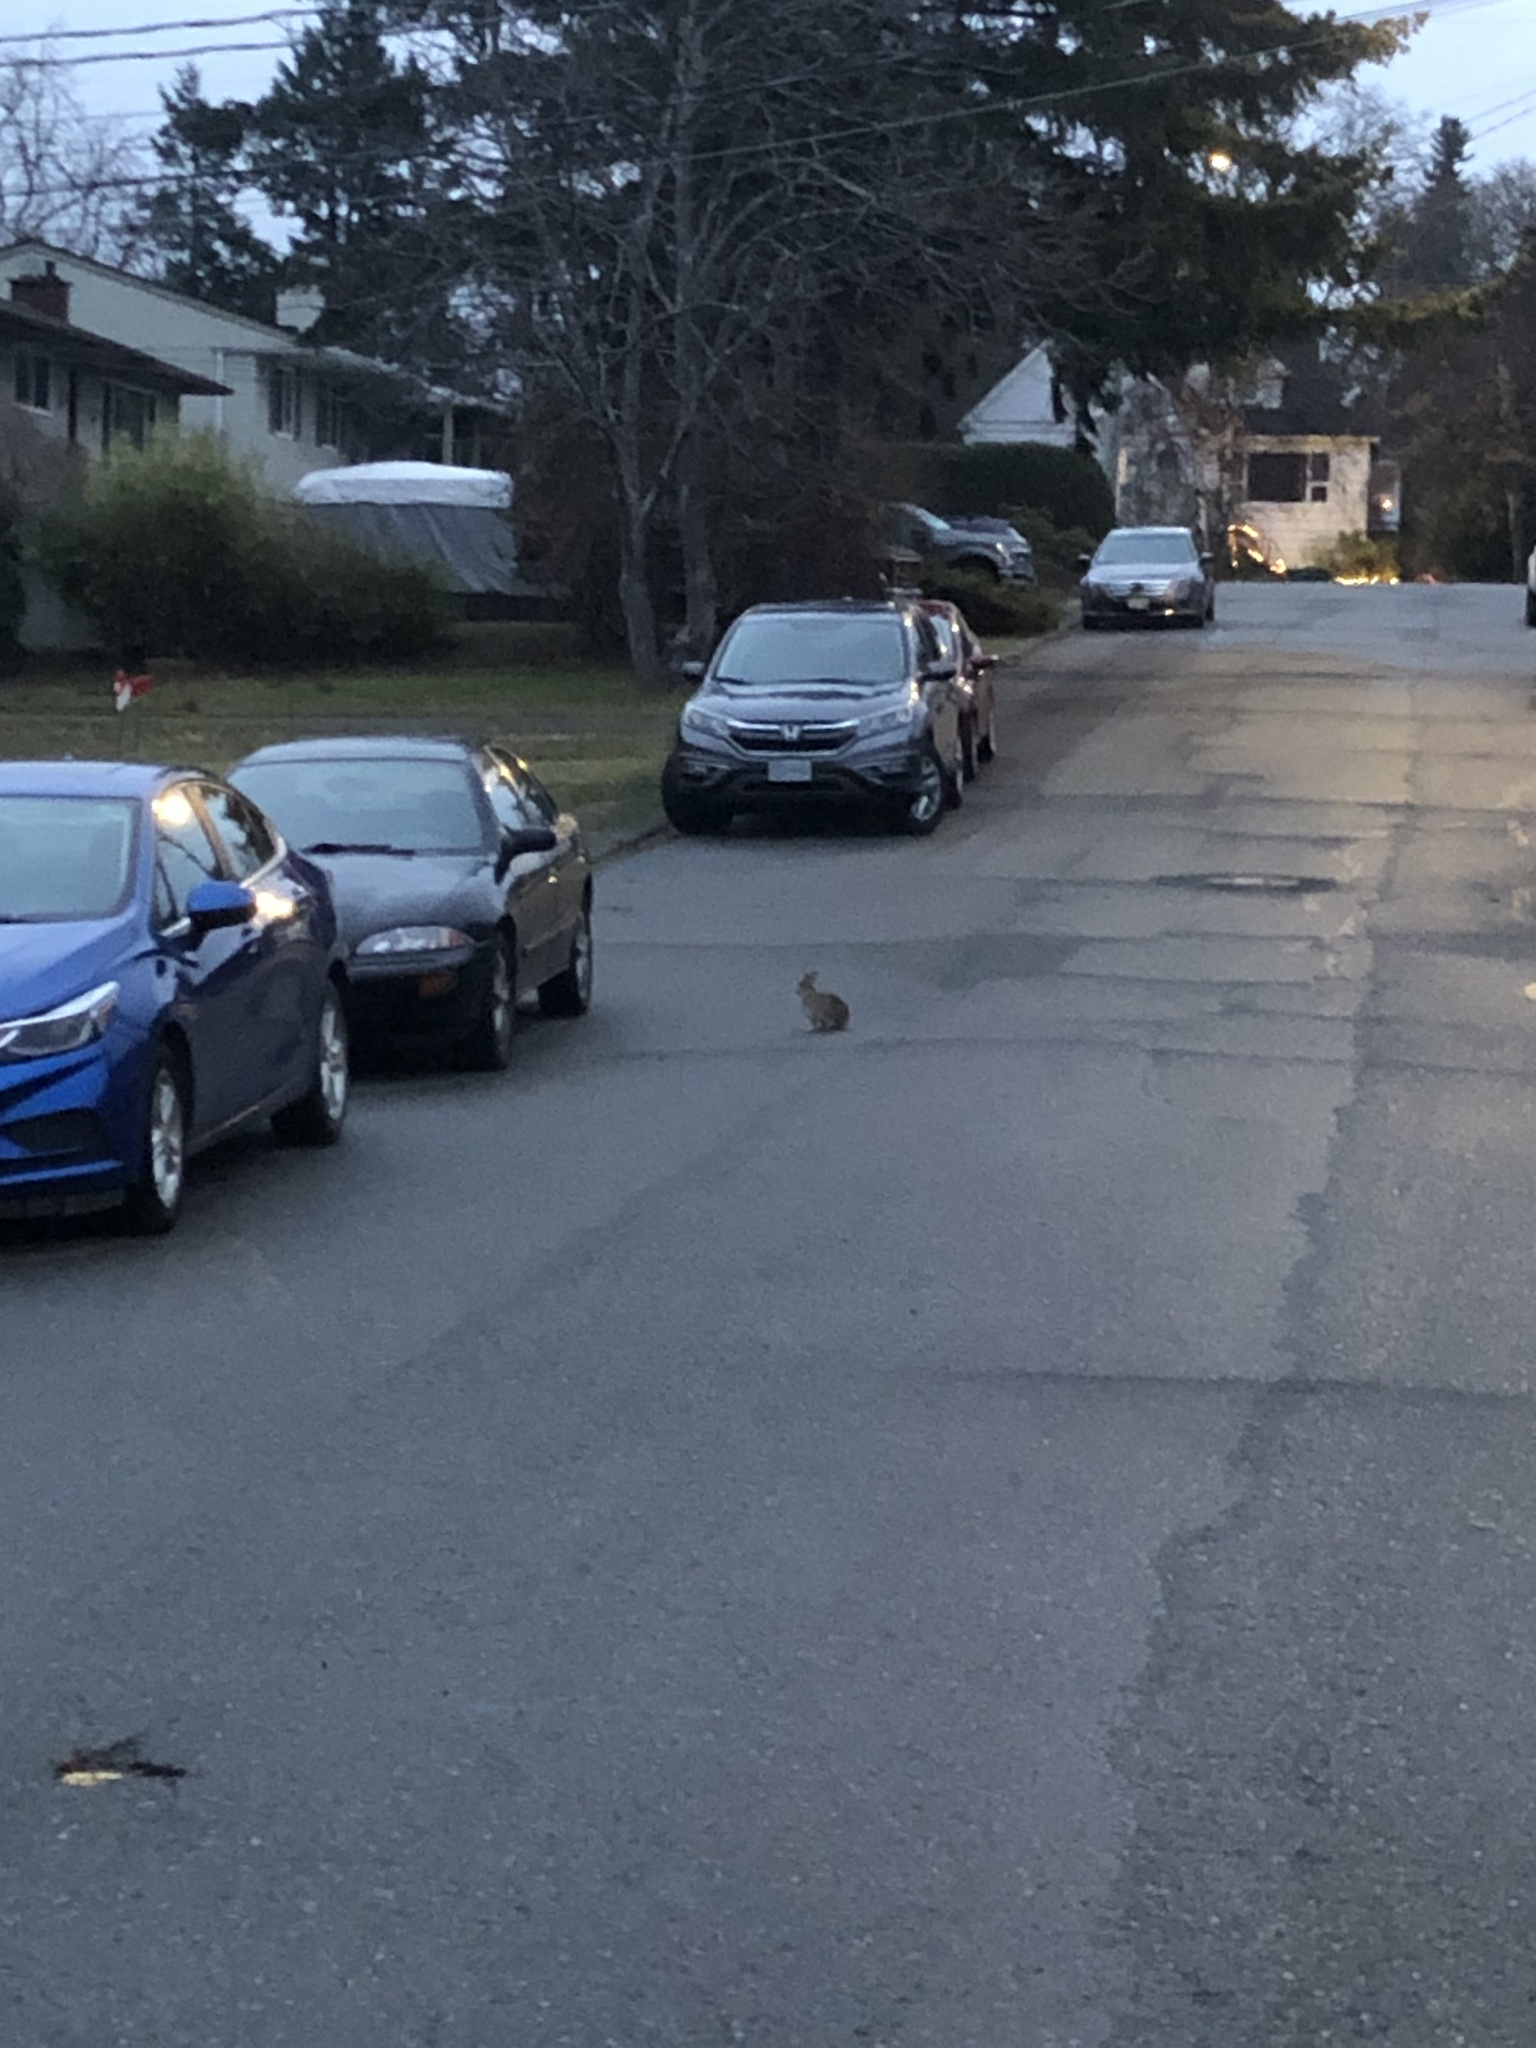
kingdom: Animalia
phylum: Chordata
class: Mammalia
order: Lagomorpha
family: Leporidae
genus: Sylvilagus
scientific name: Sylvilagus floridanus
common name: Eastern cottontail
